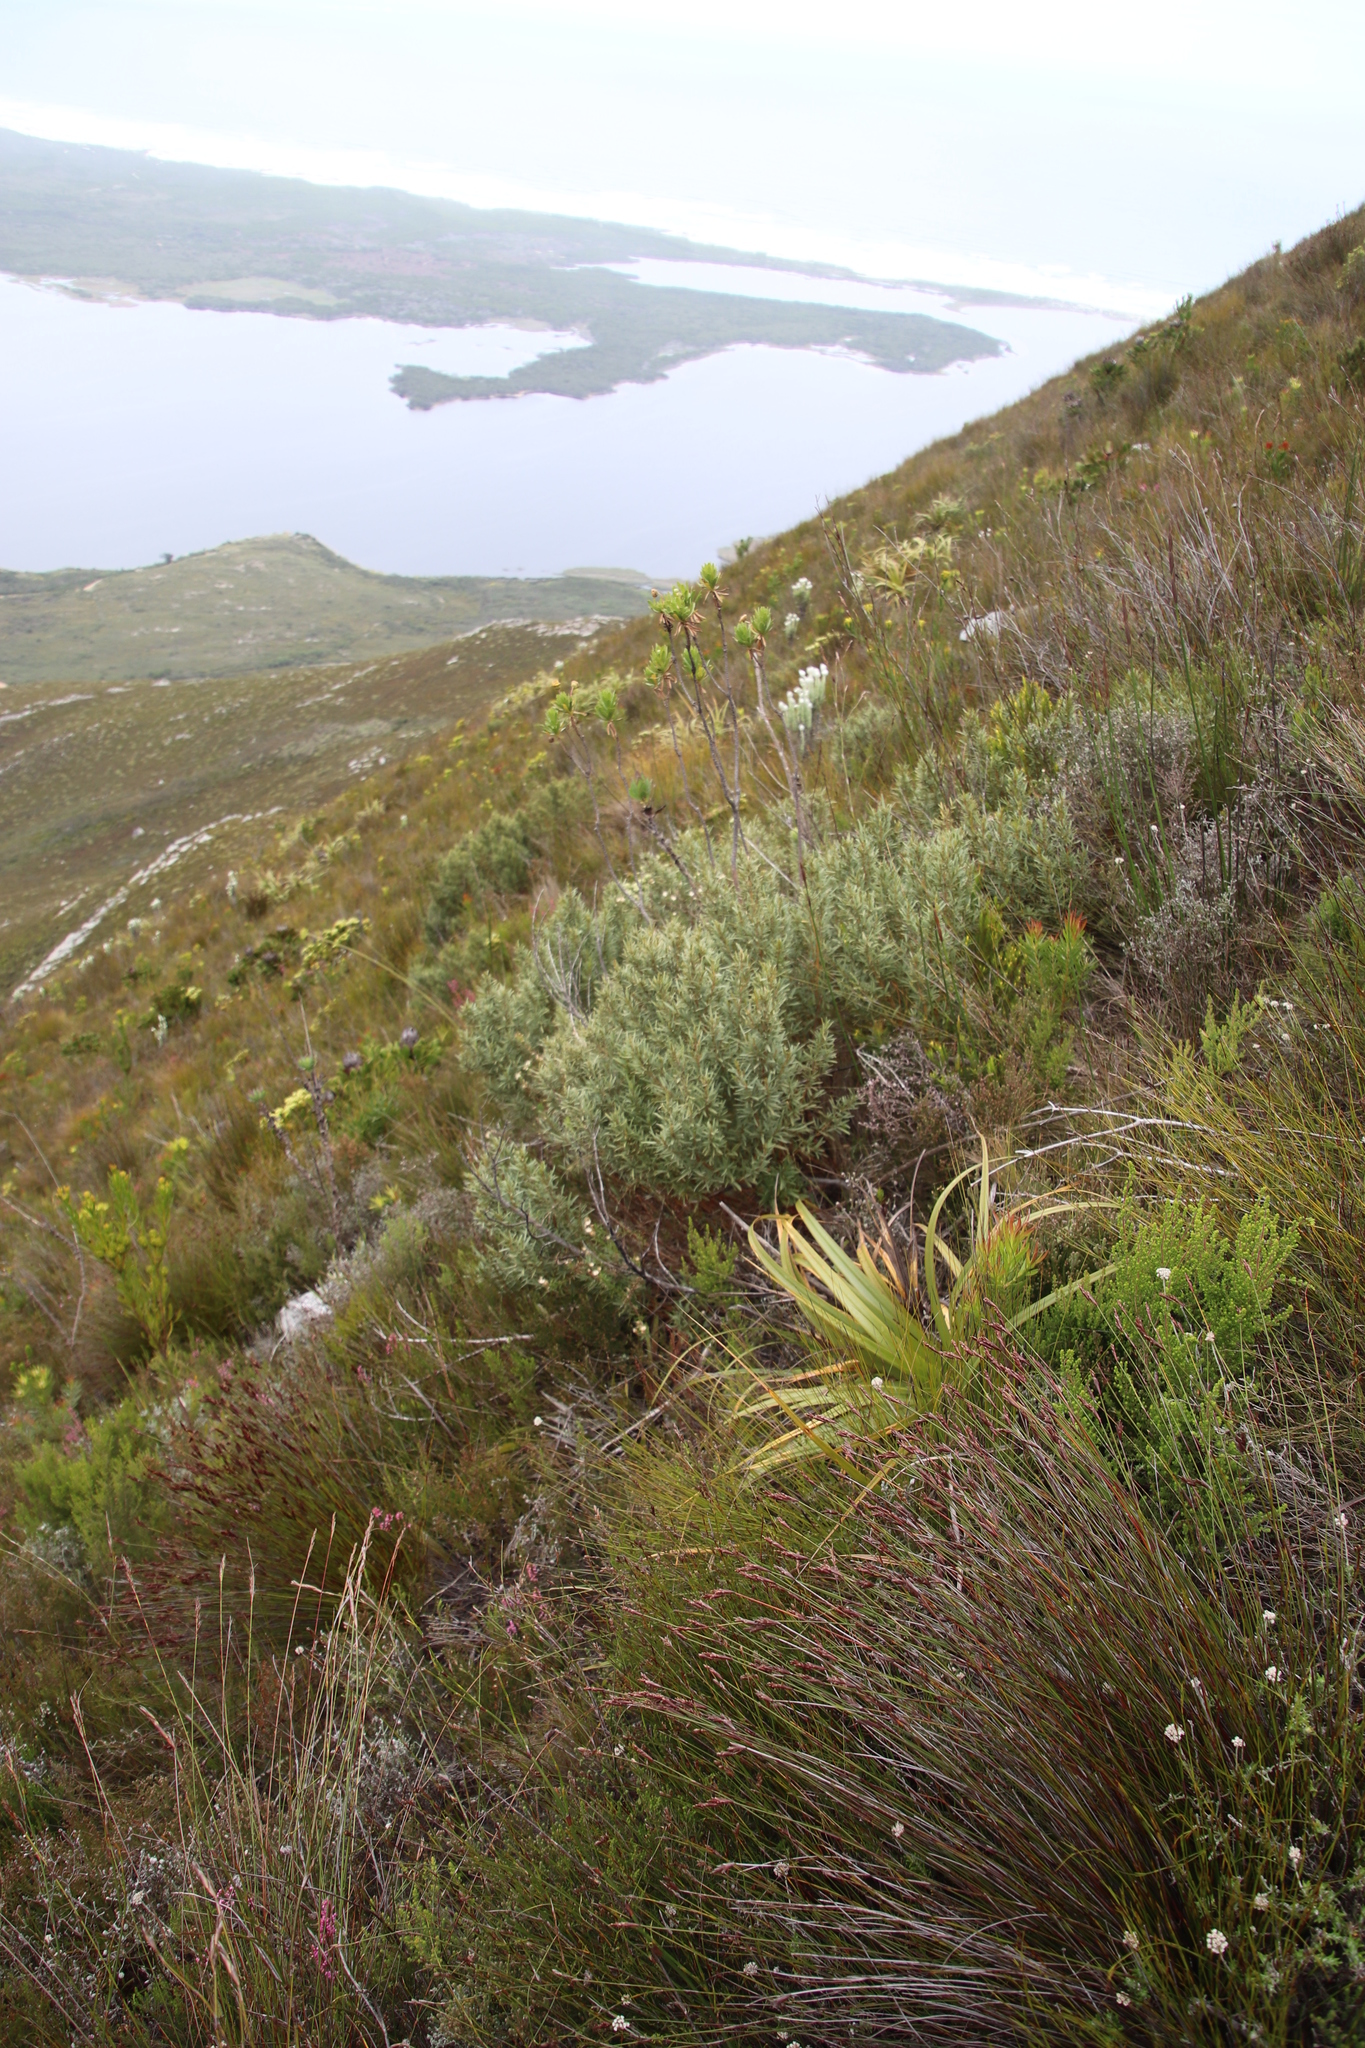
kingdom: Plantae
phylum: Tracheophyta
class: Magnoliopsida
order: Cornales
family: Grubbiaceae
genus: Grubbia
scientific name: Grubbia tomentosa
